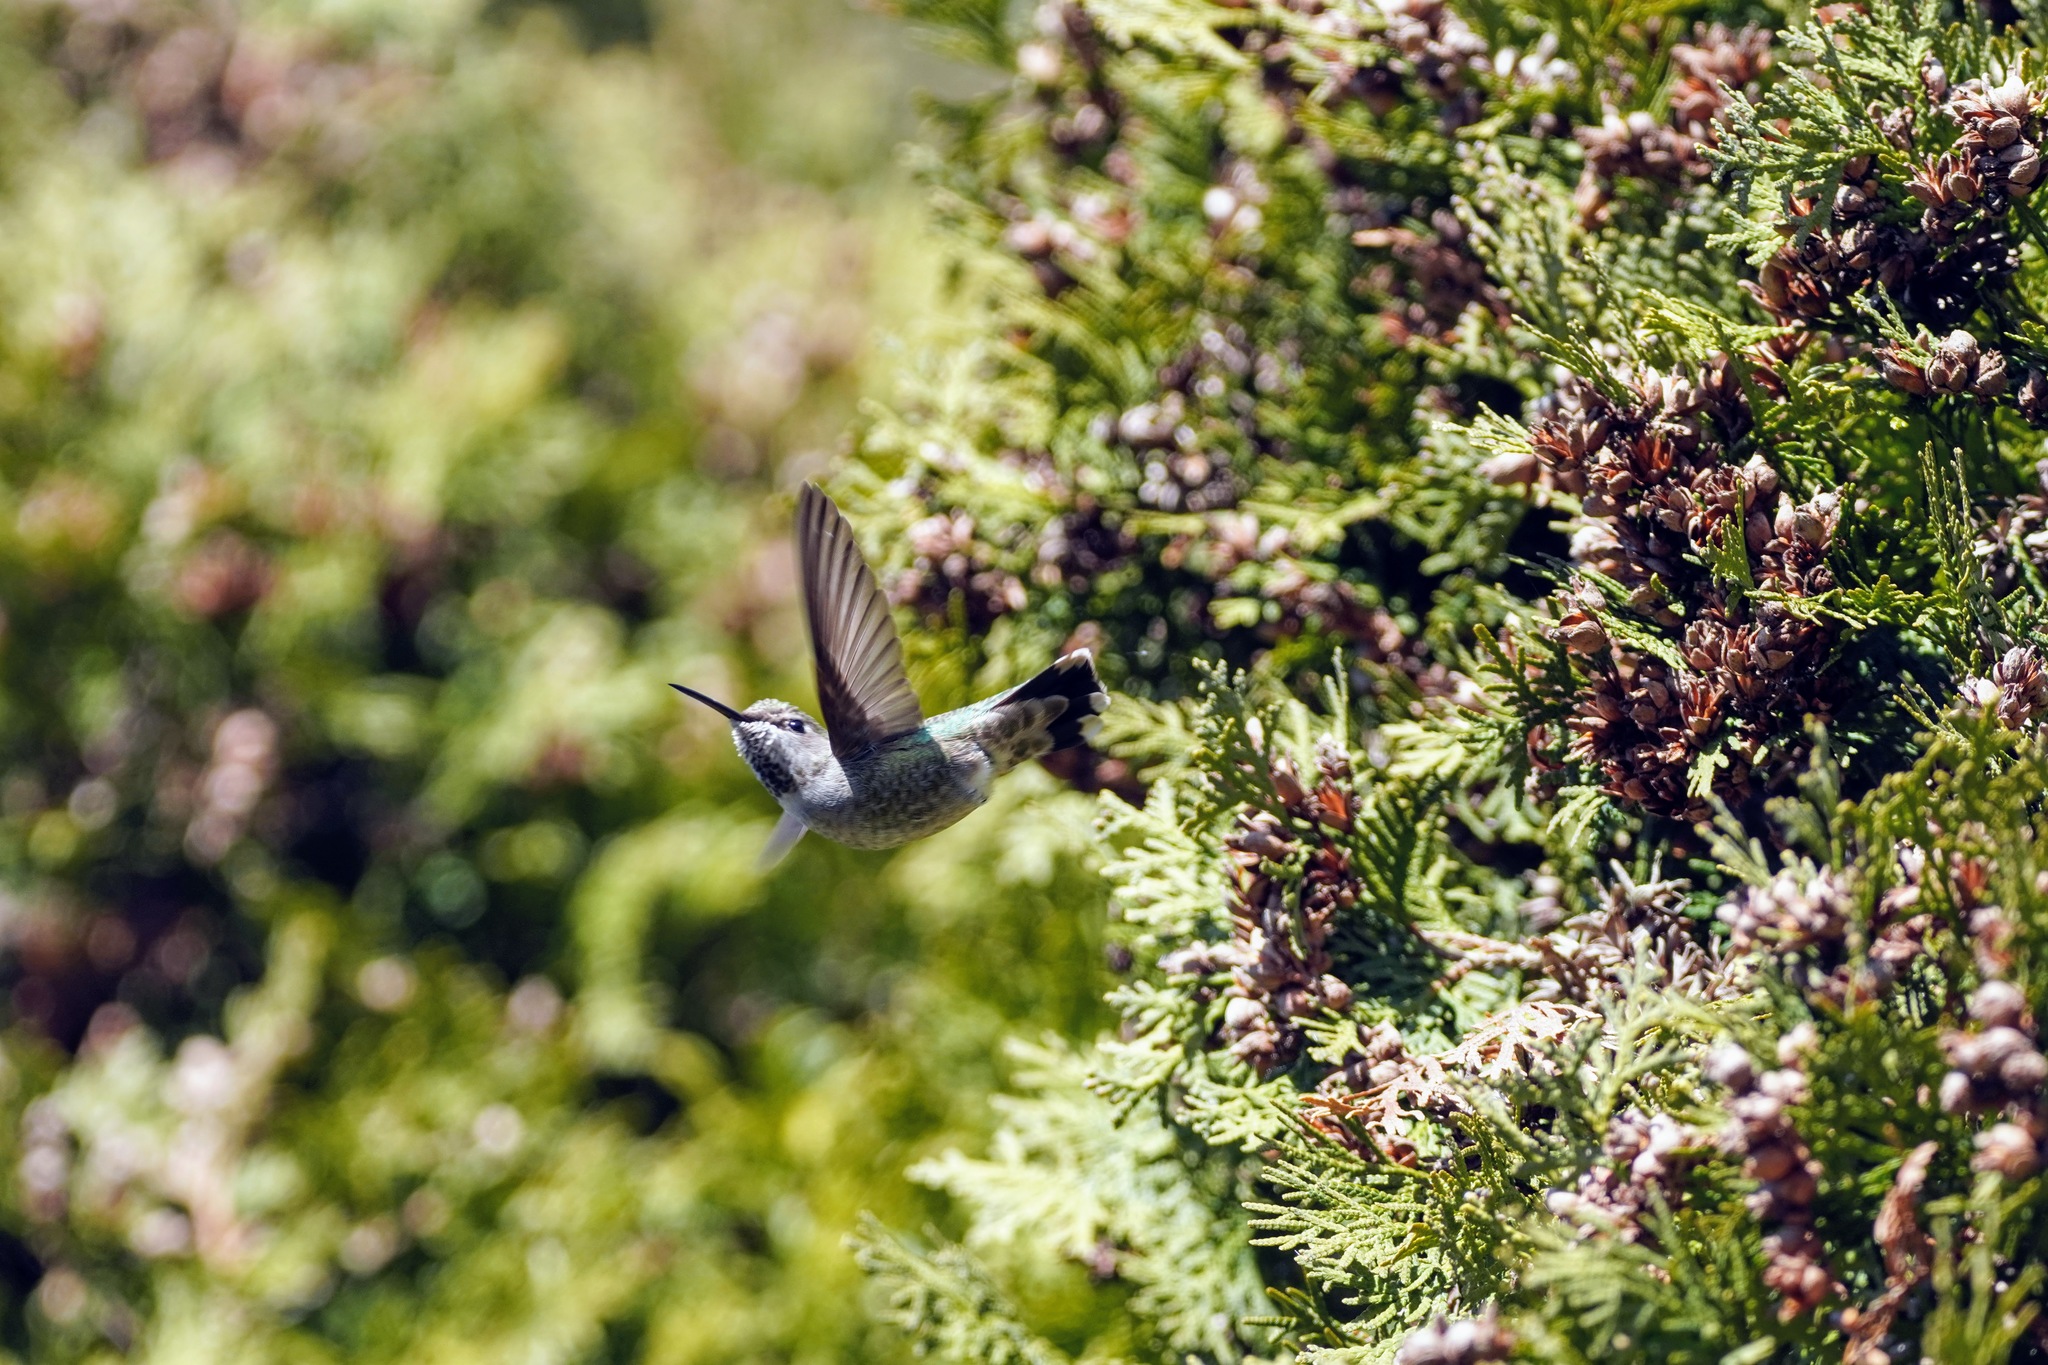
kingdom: Animalia
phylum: Chordata
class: Aves
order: Apodiformes
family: Trochilidae
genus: Calypte
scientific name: Calypte anna
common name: Anna's hummingbird
